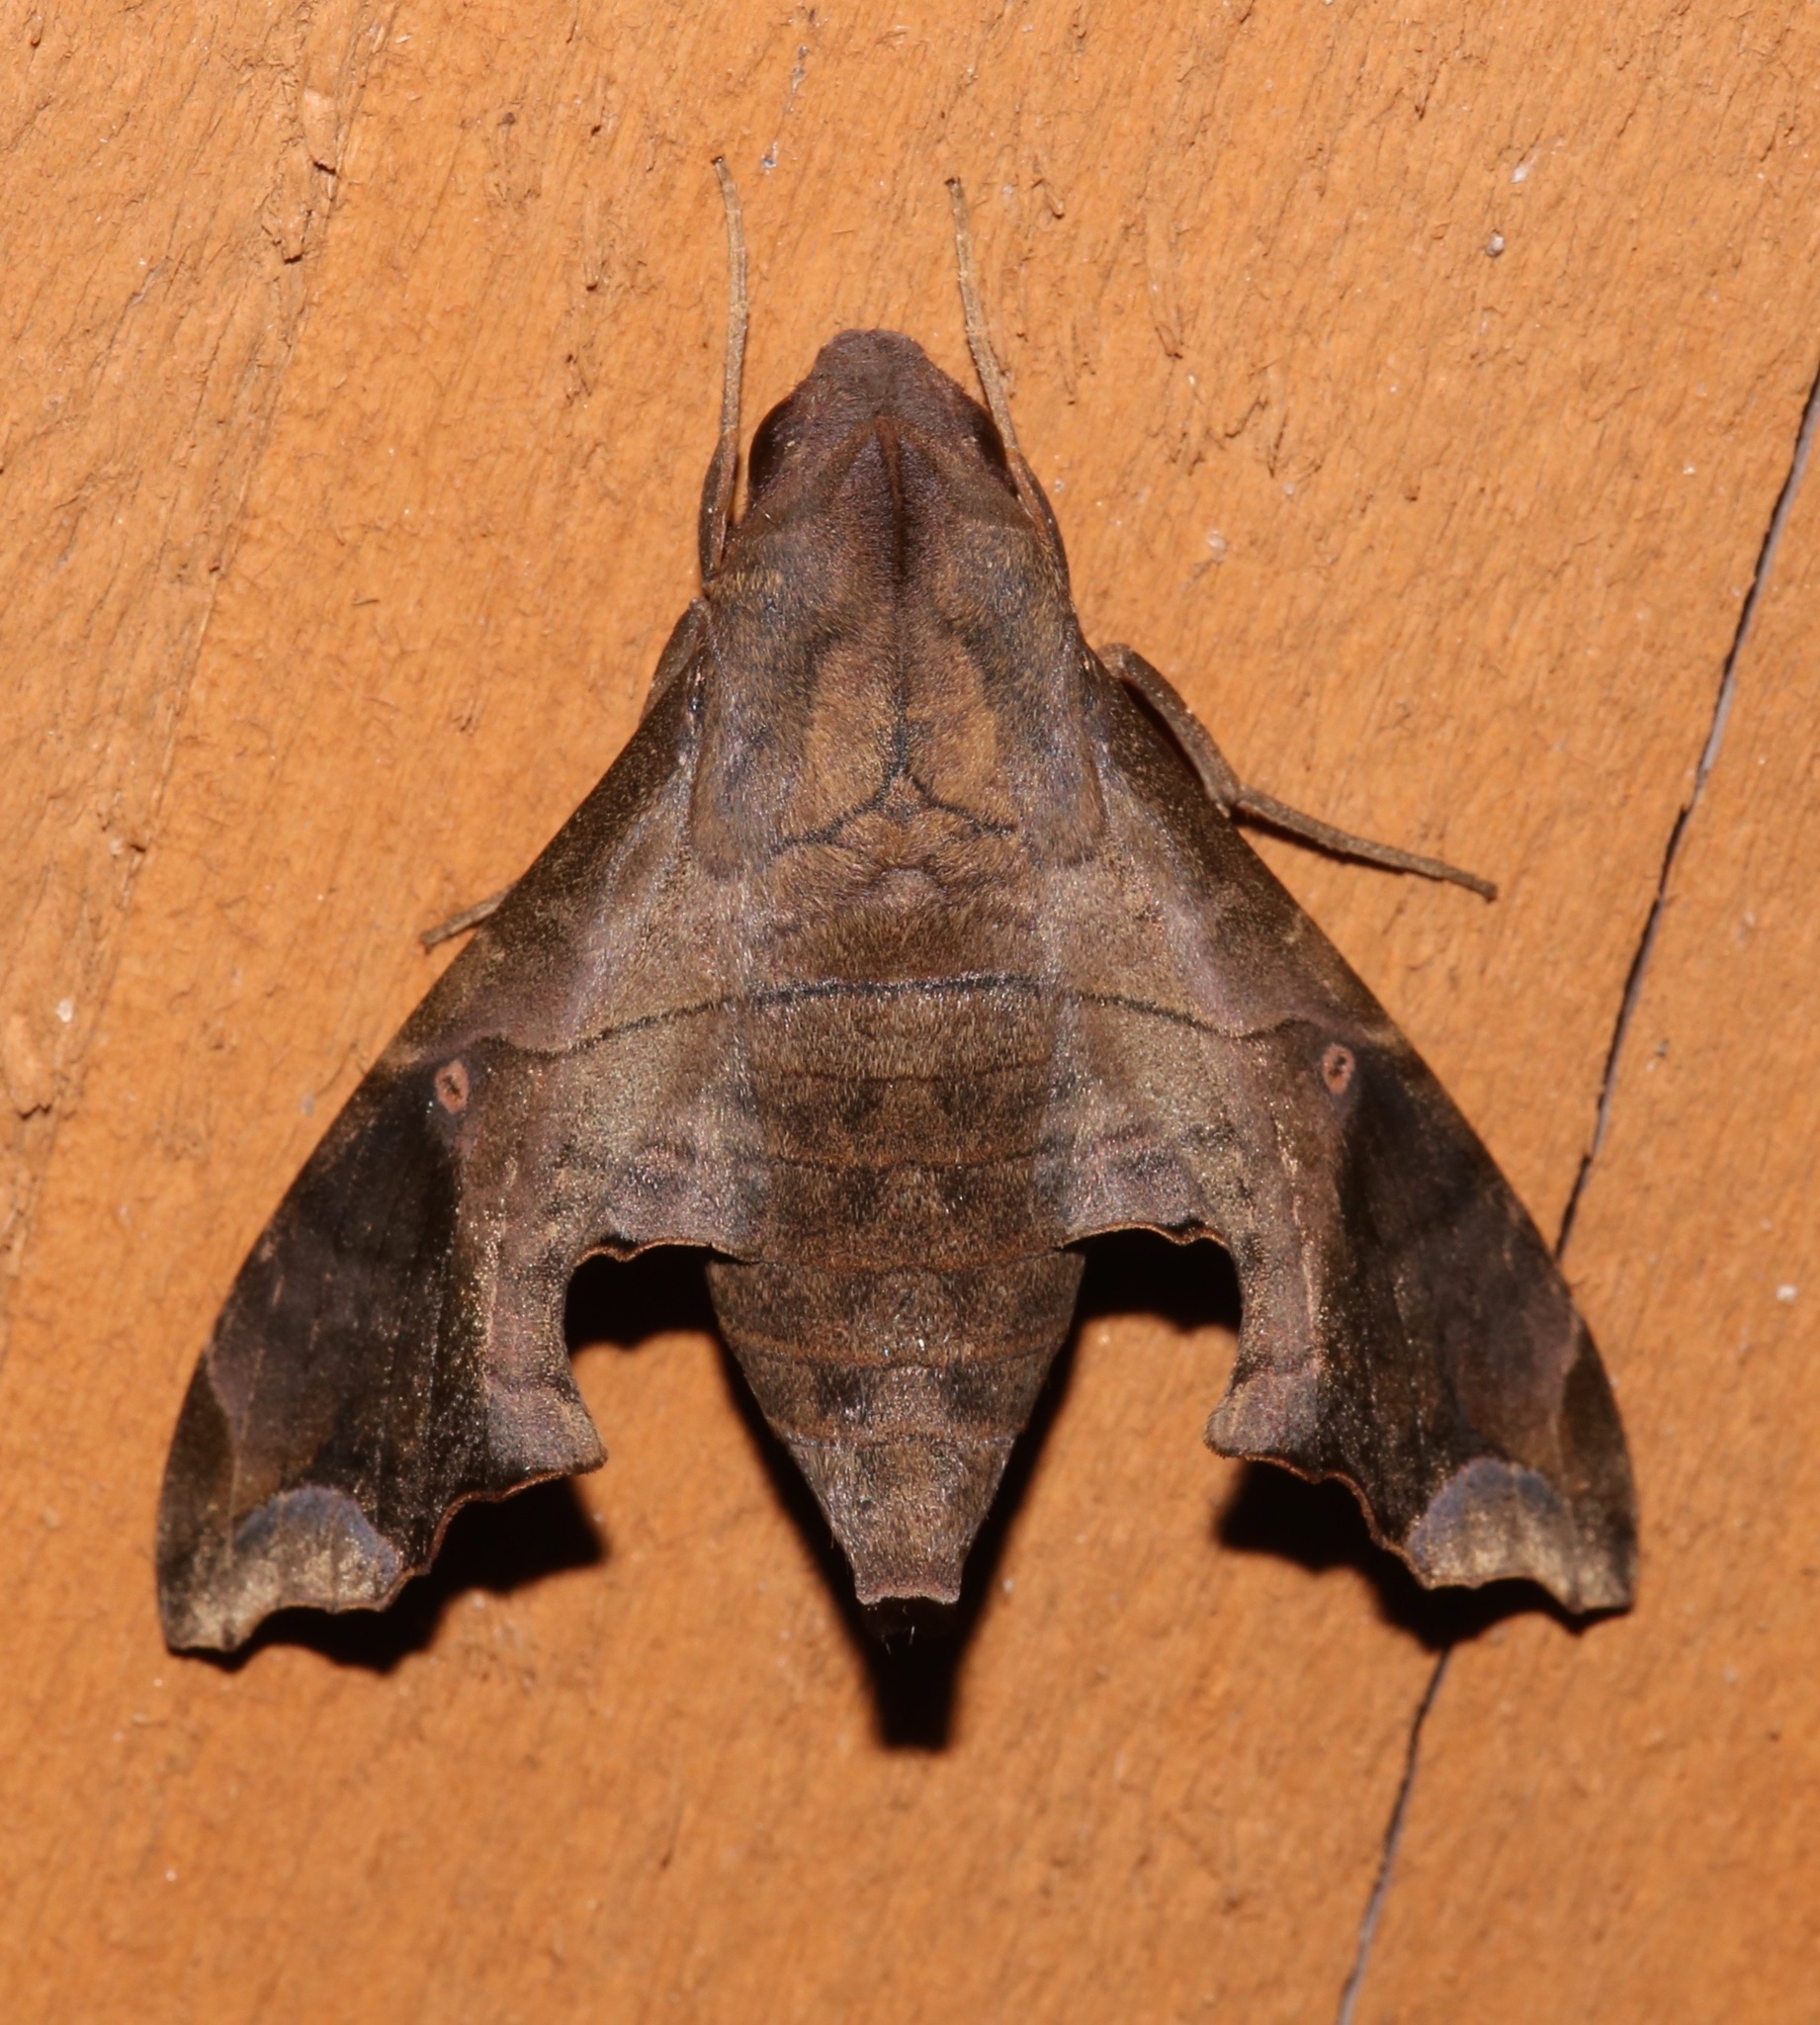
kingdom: Animalia
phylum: Arthropoda
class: Insecta
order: Lepidoptera
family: Sphingidae
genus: Enyo
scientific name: Enyo lugubris
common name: Mournful sphinx
